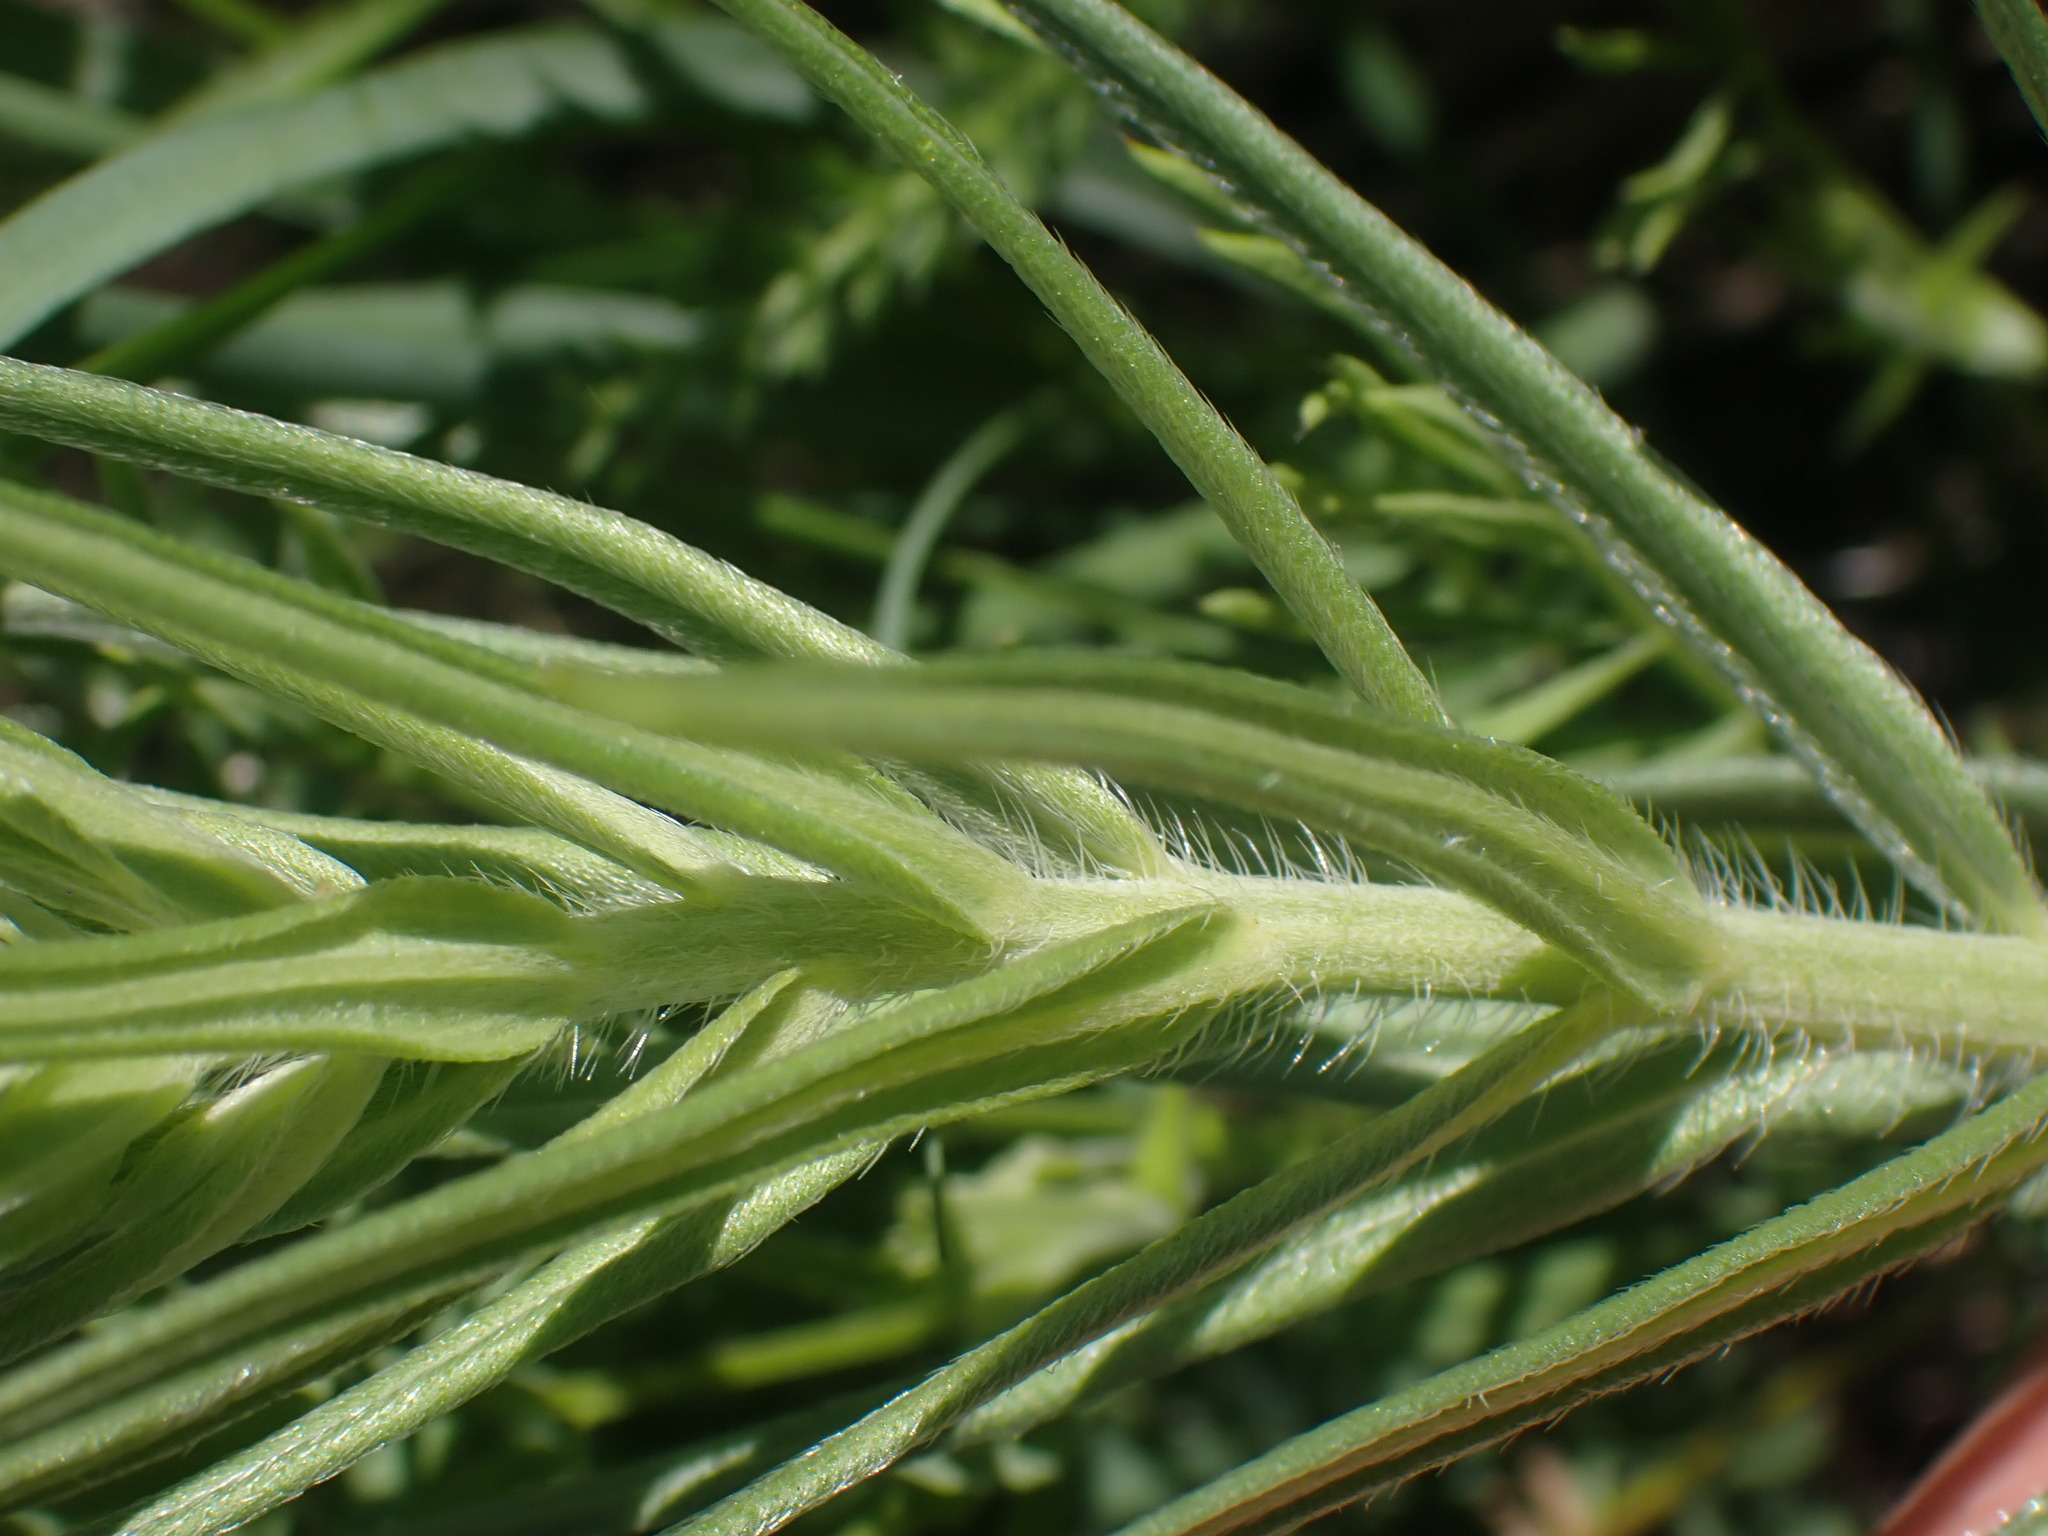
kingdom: Plantae
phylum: Tracheophyta
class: Magnoliopsida
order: Boraginales
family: Boraginaceae
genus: Lithospermum
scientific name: Lithospermum ruderale
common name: Western gromwell
